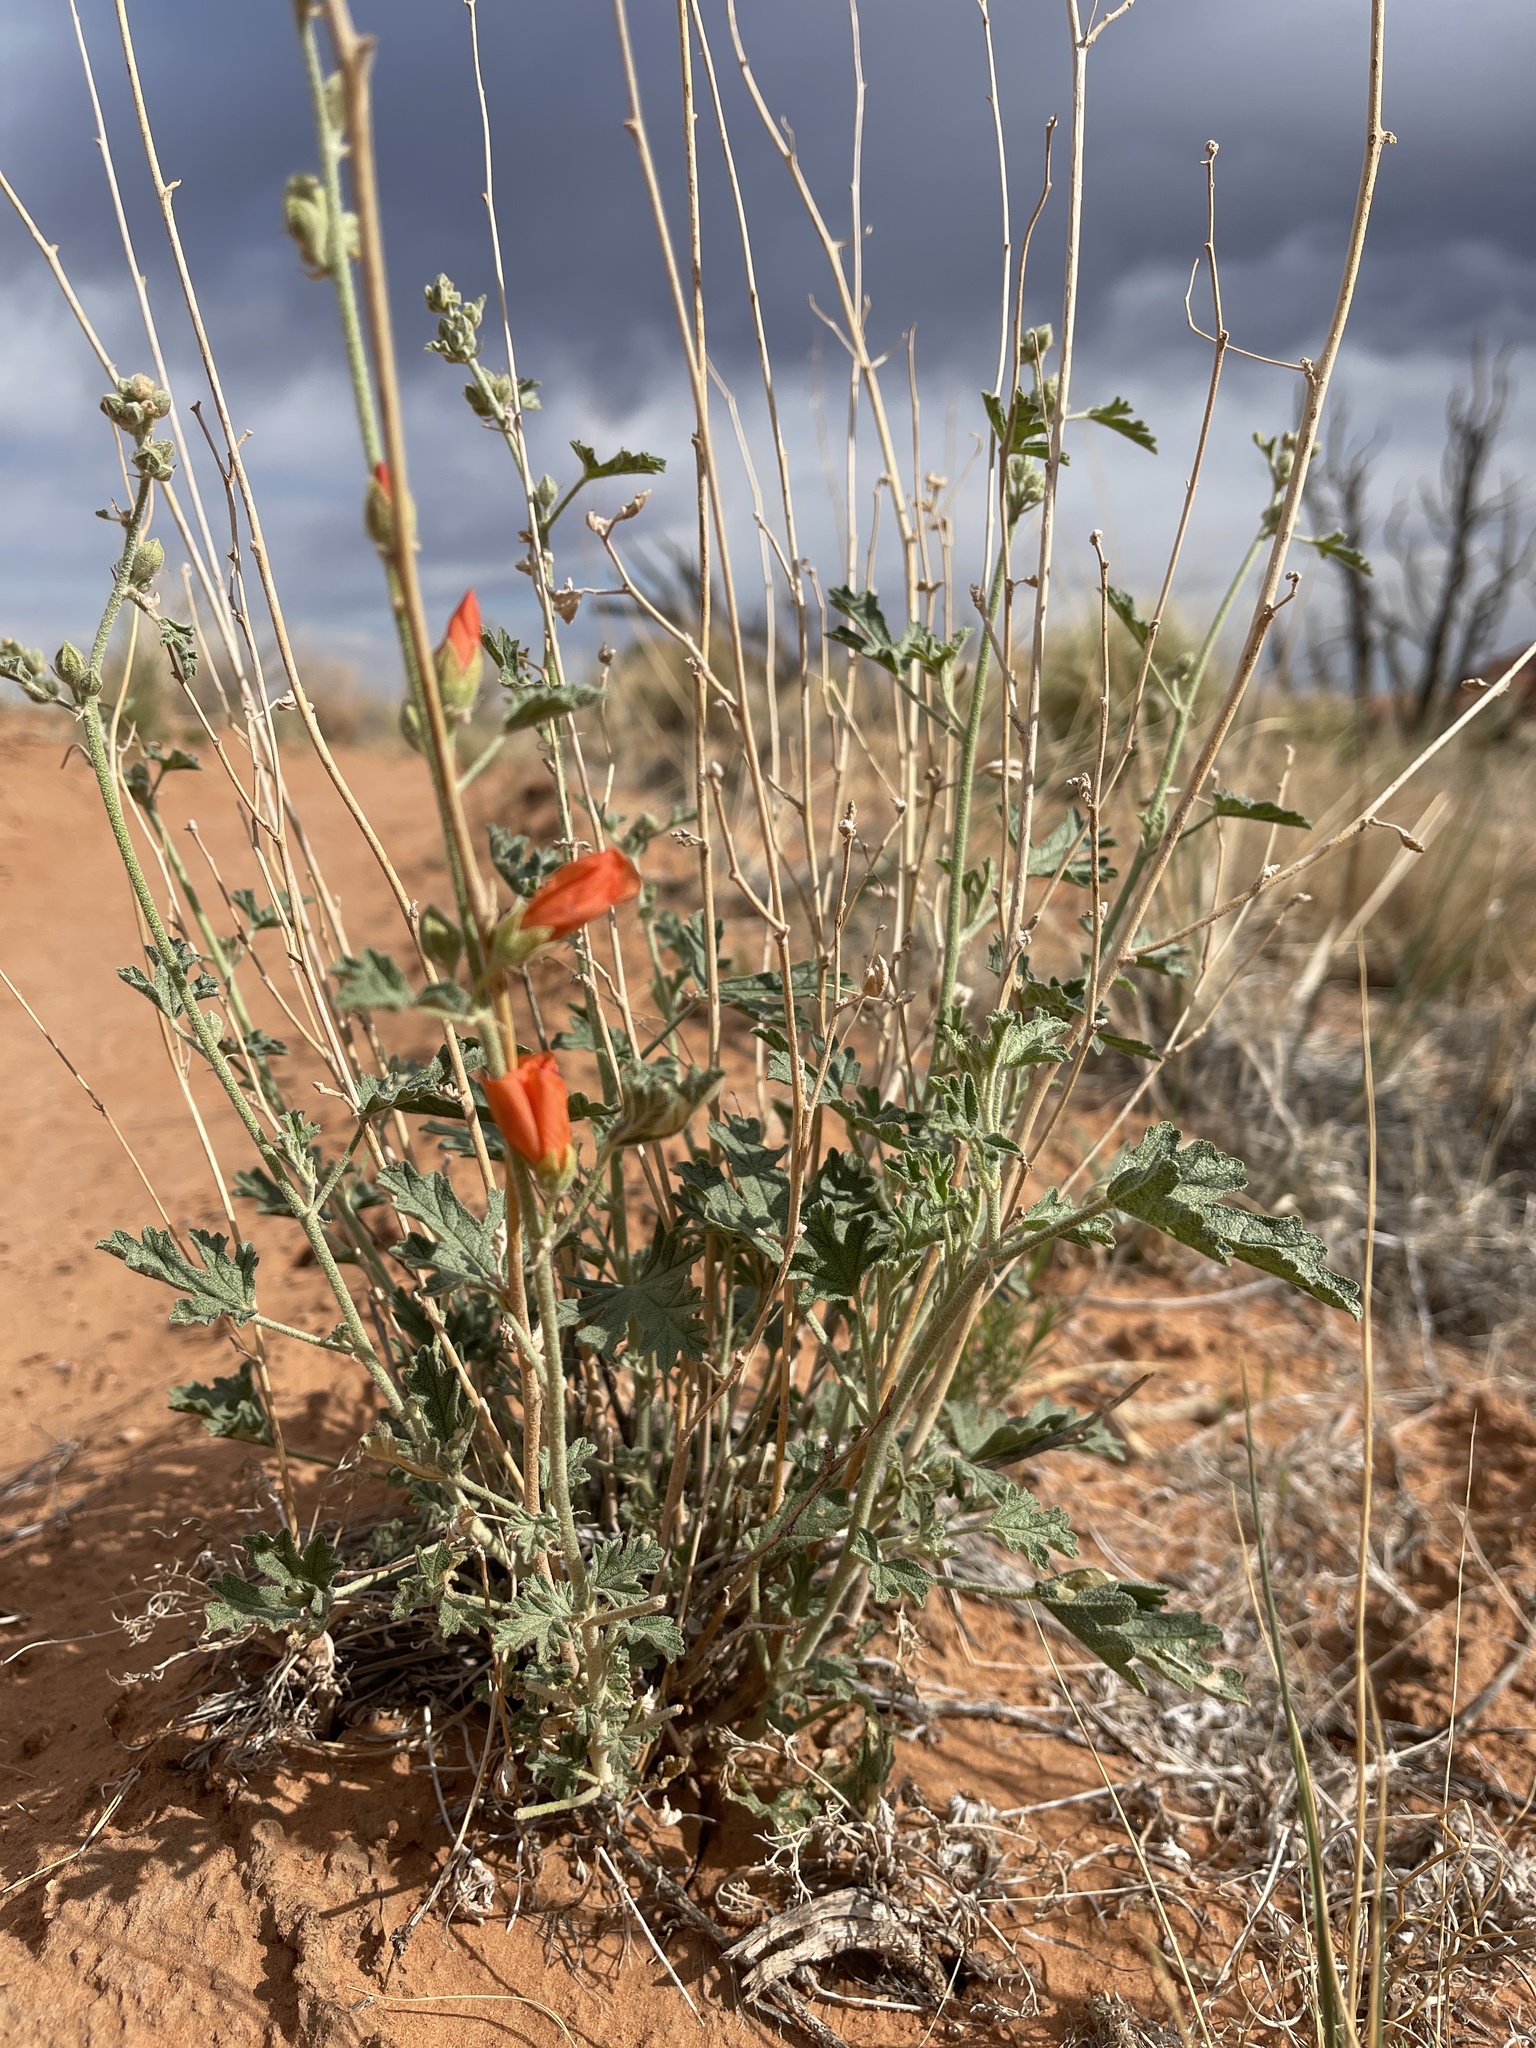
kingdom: Plantae
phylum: Tracheophyta
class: Magnoliopsida
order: Malvales
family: Malvaceae
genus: Sphaeralcea
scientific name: Sphaeralcea grossulariifolia
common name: Current-leaf globe-mallow
